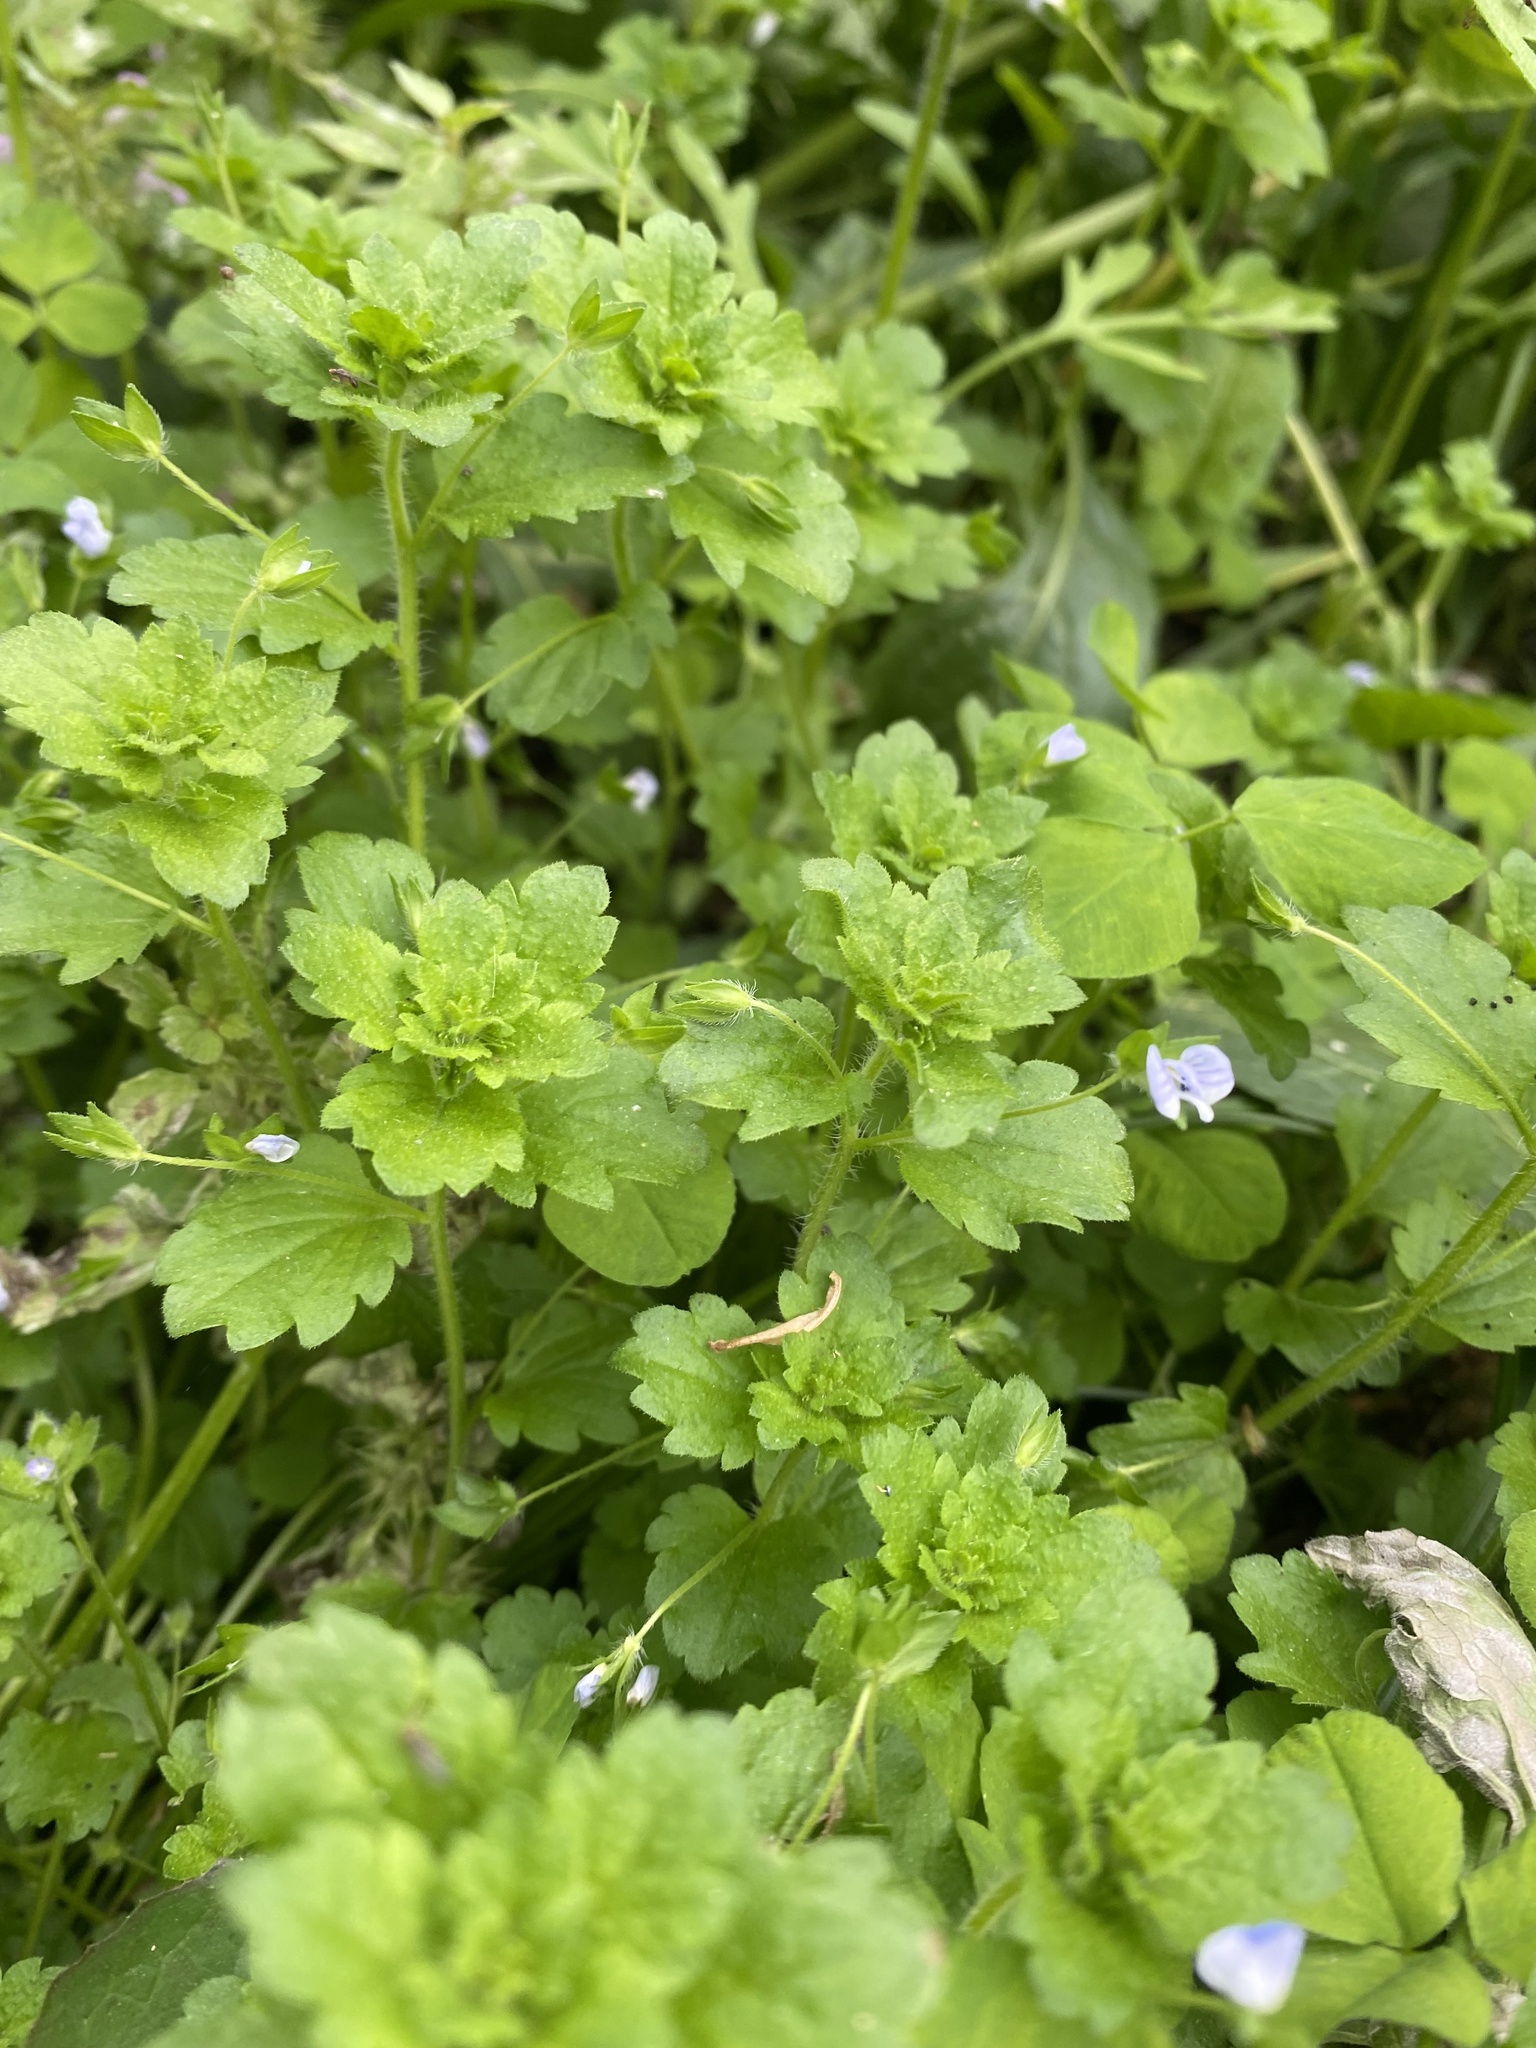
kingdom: Plantae
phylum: Tracheophyta
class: Magnoliopsida
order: Lamiales
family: Plantaginaceae
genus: Veronica
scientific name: Veronica persica
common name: Common field-speedwell
